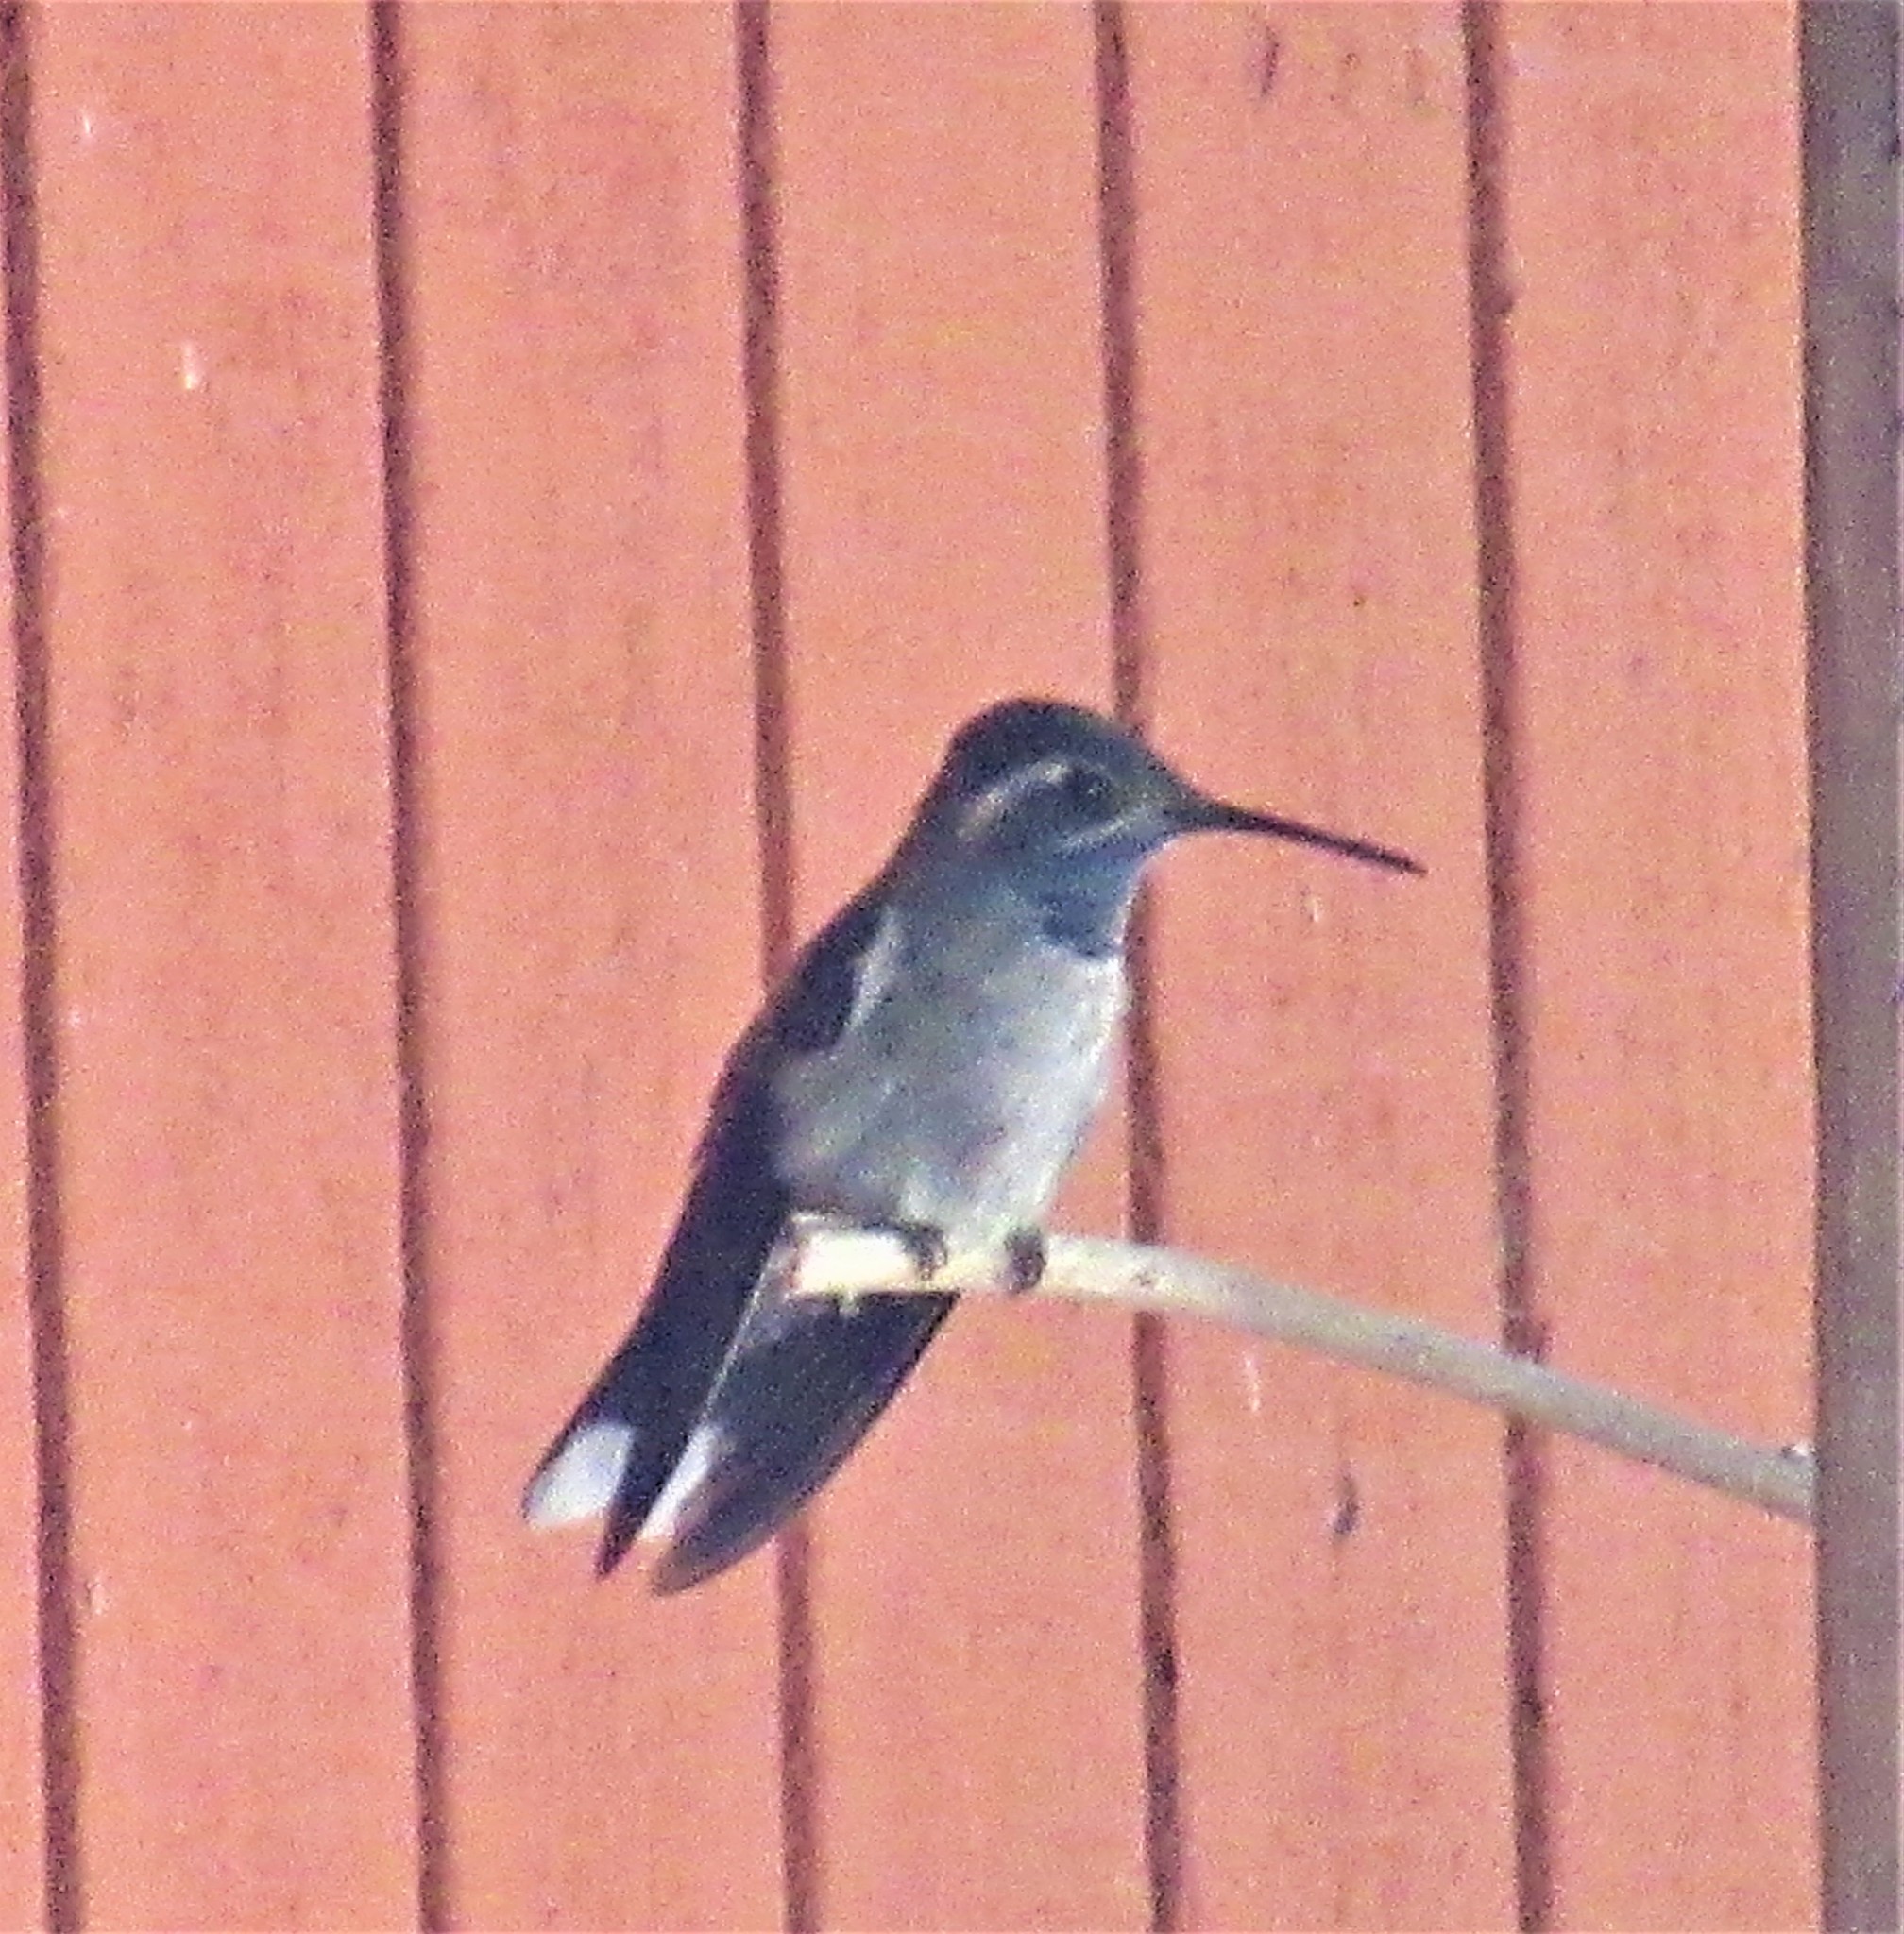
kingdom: Animalia
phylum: Chordata
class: Aves
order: Apodiformes
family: Trochilidae
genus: Lampornis
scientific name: Lampornis clemenciae
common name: Blue-throated mountaingem
